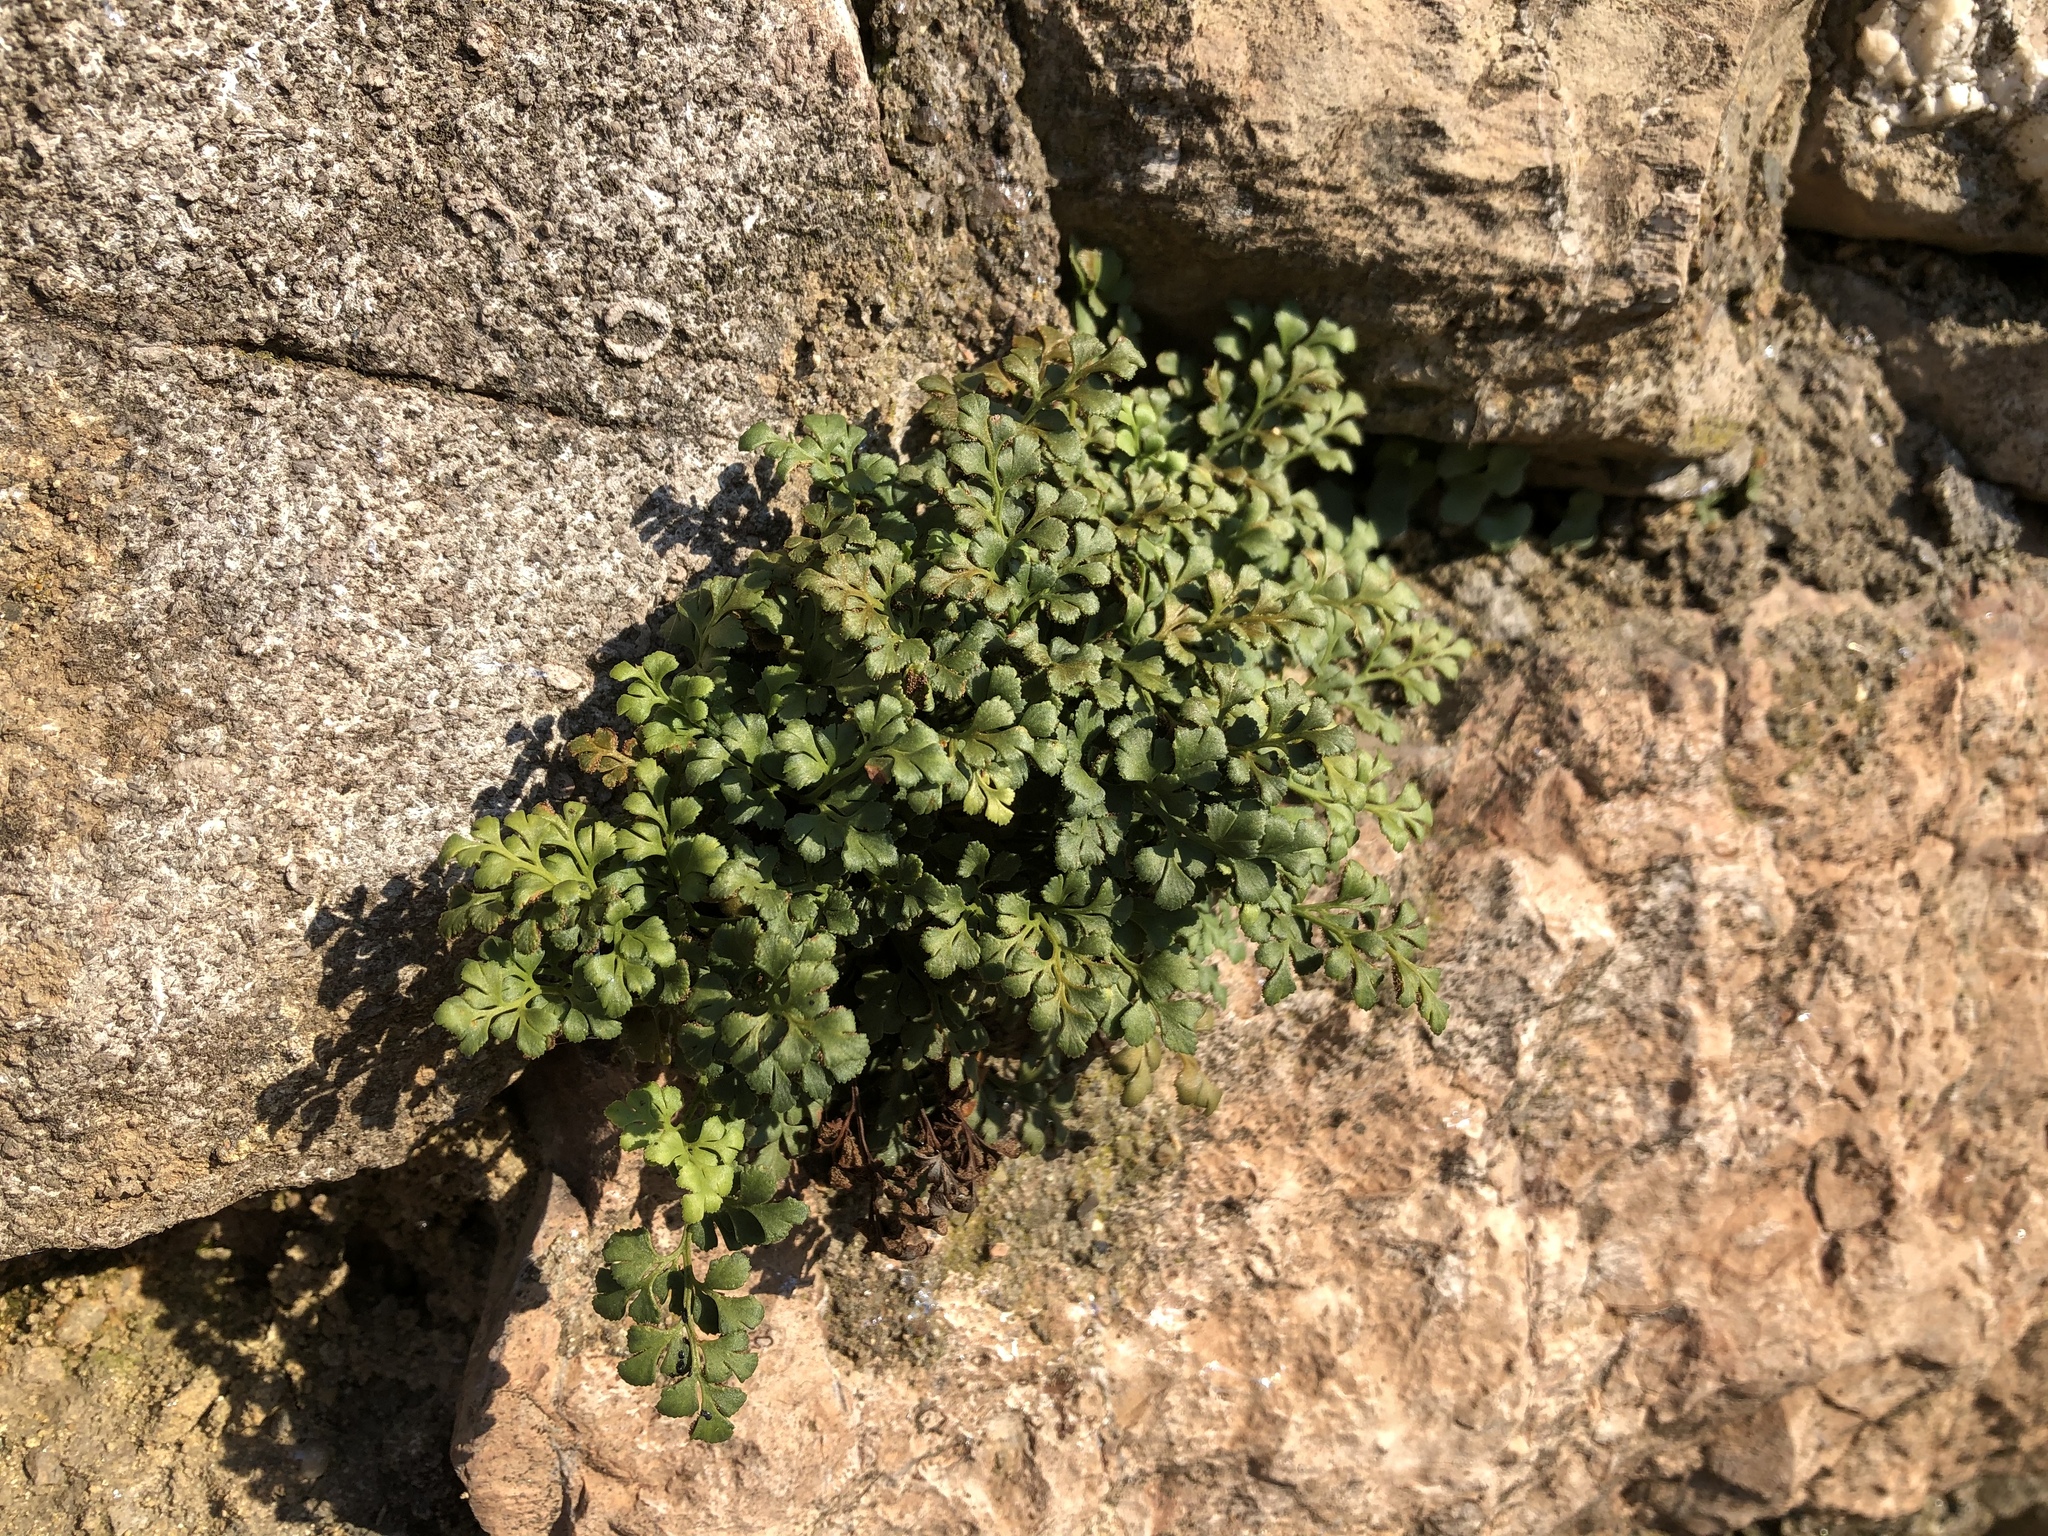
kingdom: Plantae
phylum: Tracheophyta
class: Polypodiopsida
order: Polypodiales
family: Aspleniaceae
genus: Asplenium
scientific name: Asplenium ruta-muraria
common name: Wall-rue
